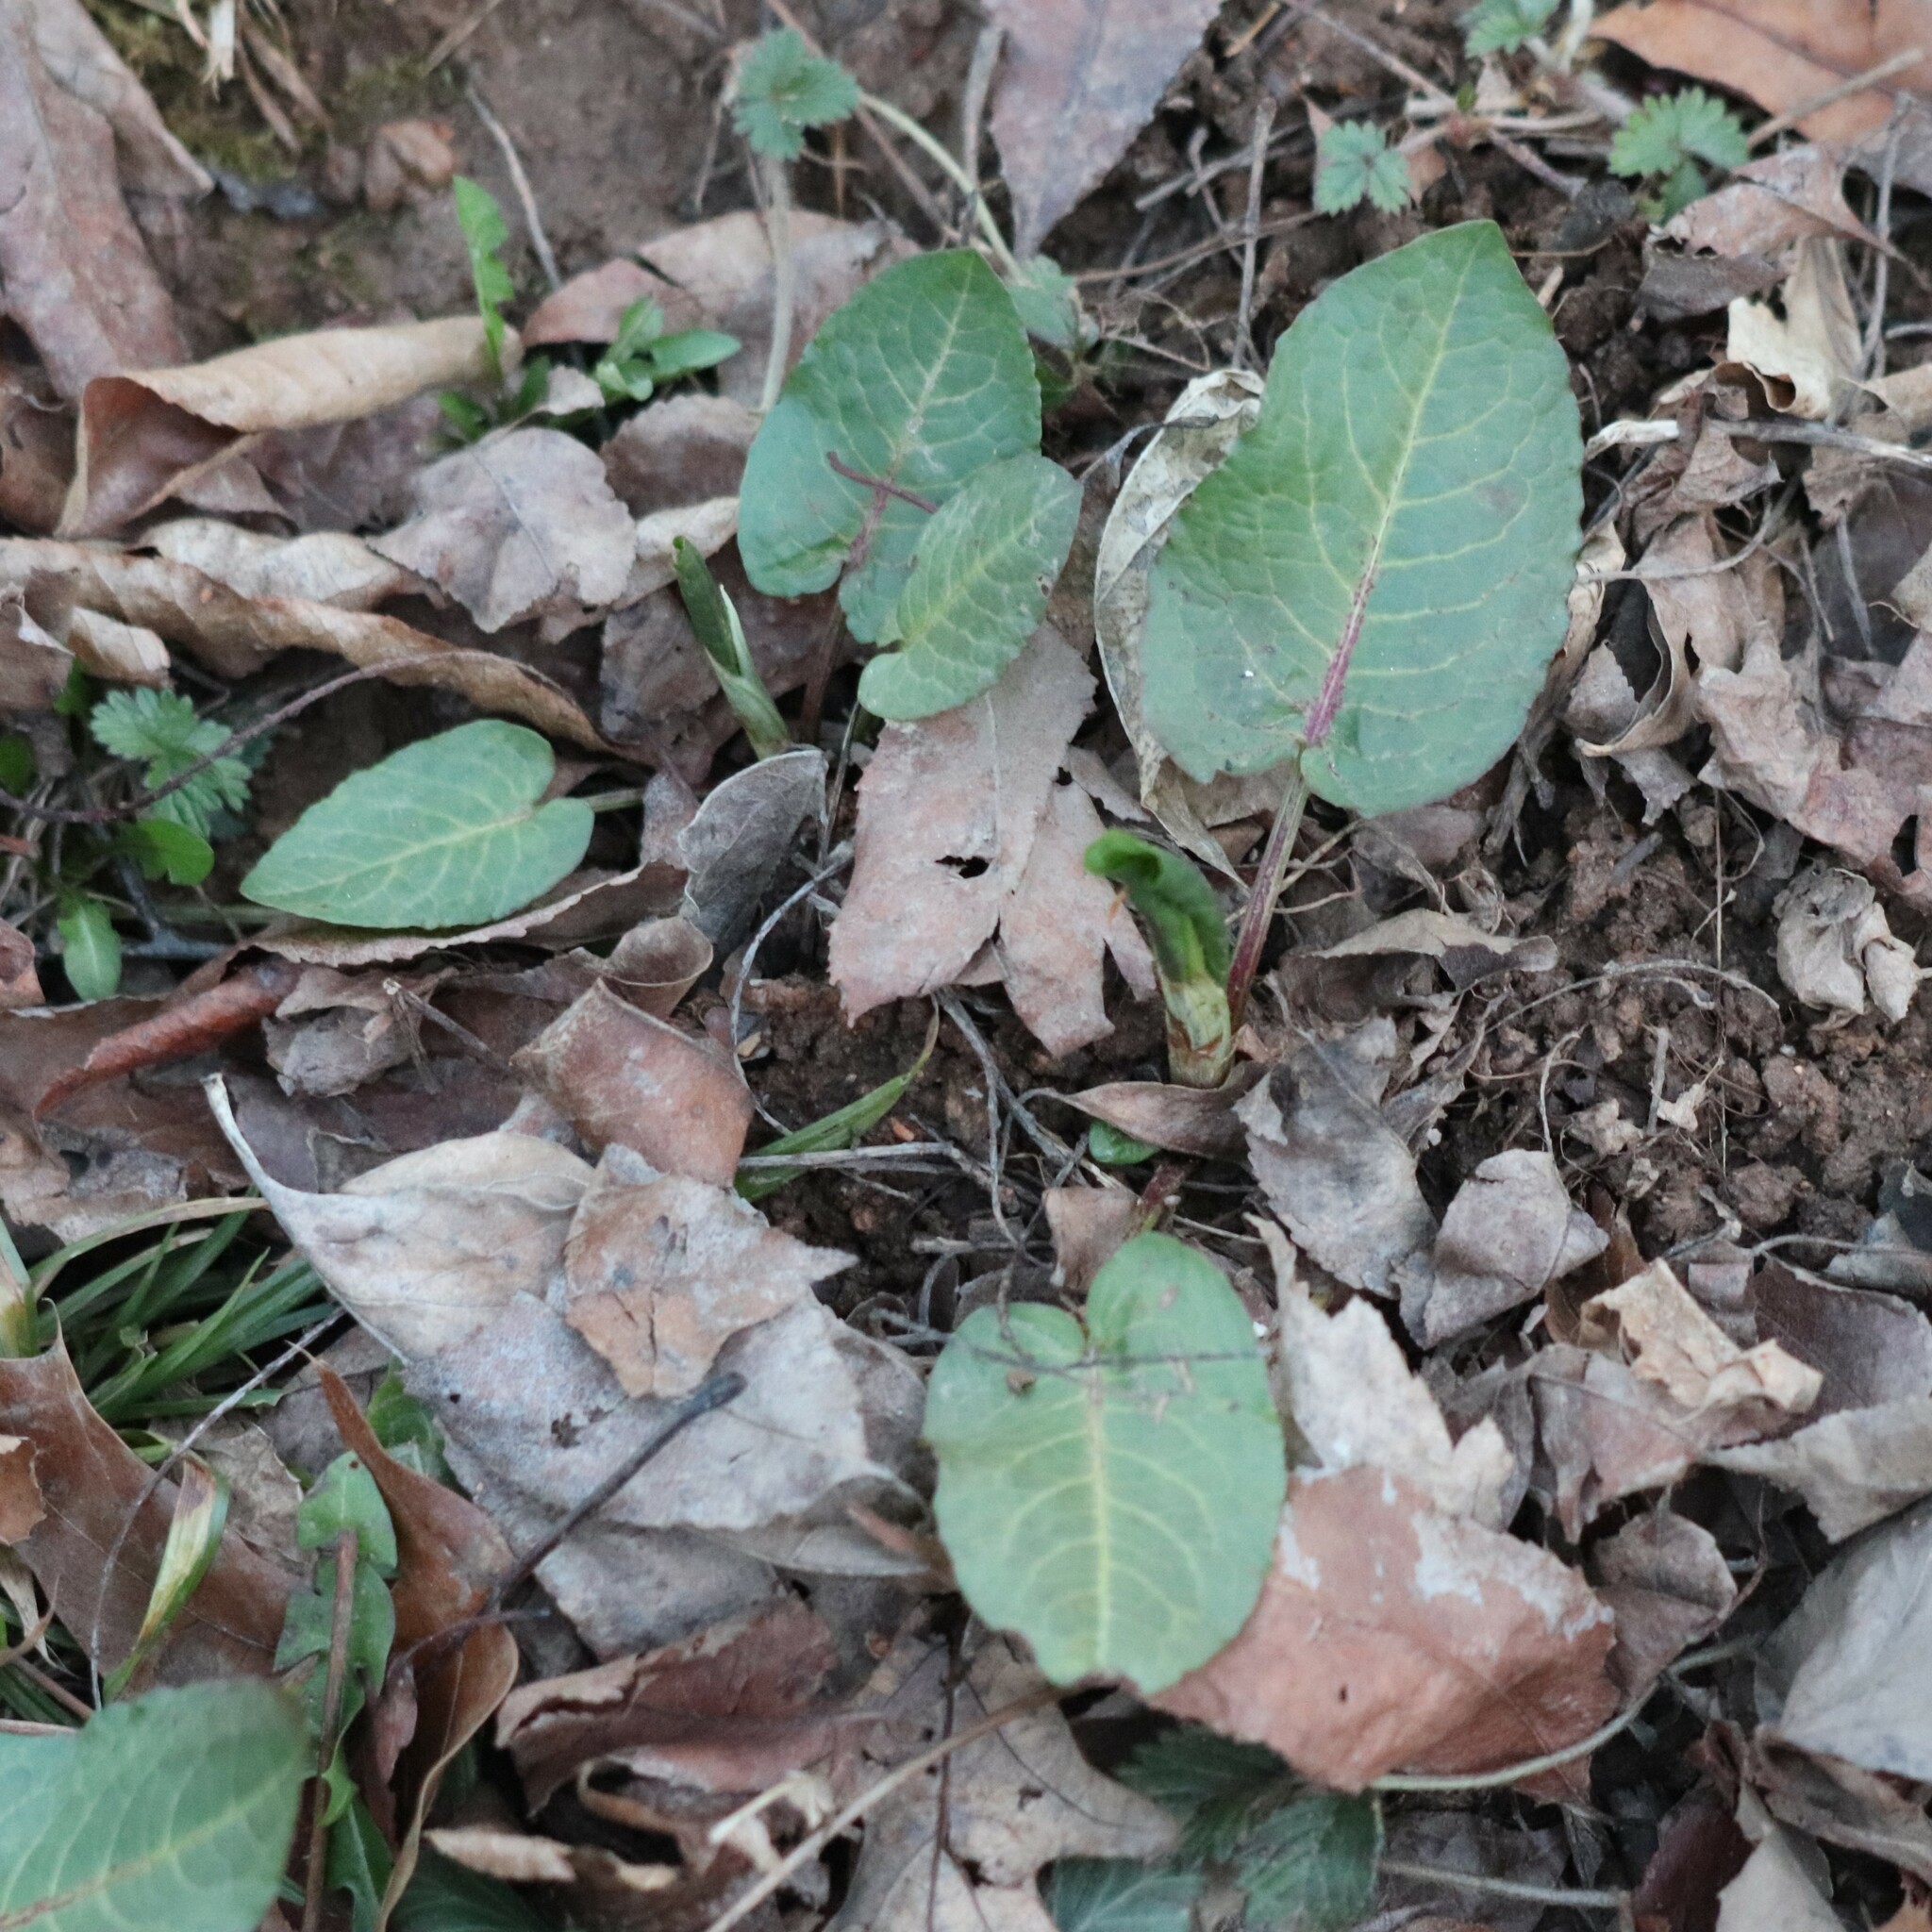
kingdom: Plantae
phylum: Tracheophyta
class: Magnoliopsida
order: Caryophyllales
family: Polygonaceae
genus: Rumex
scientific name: Rumex obtusifolius
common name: Bitter dock
